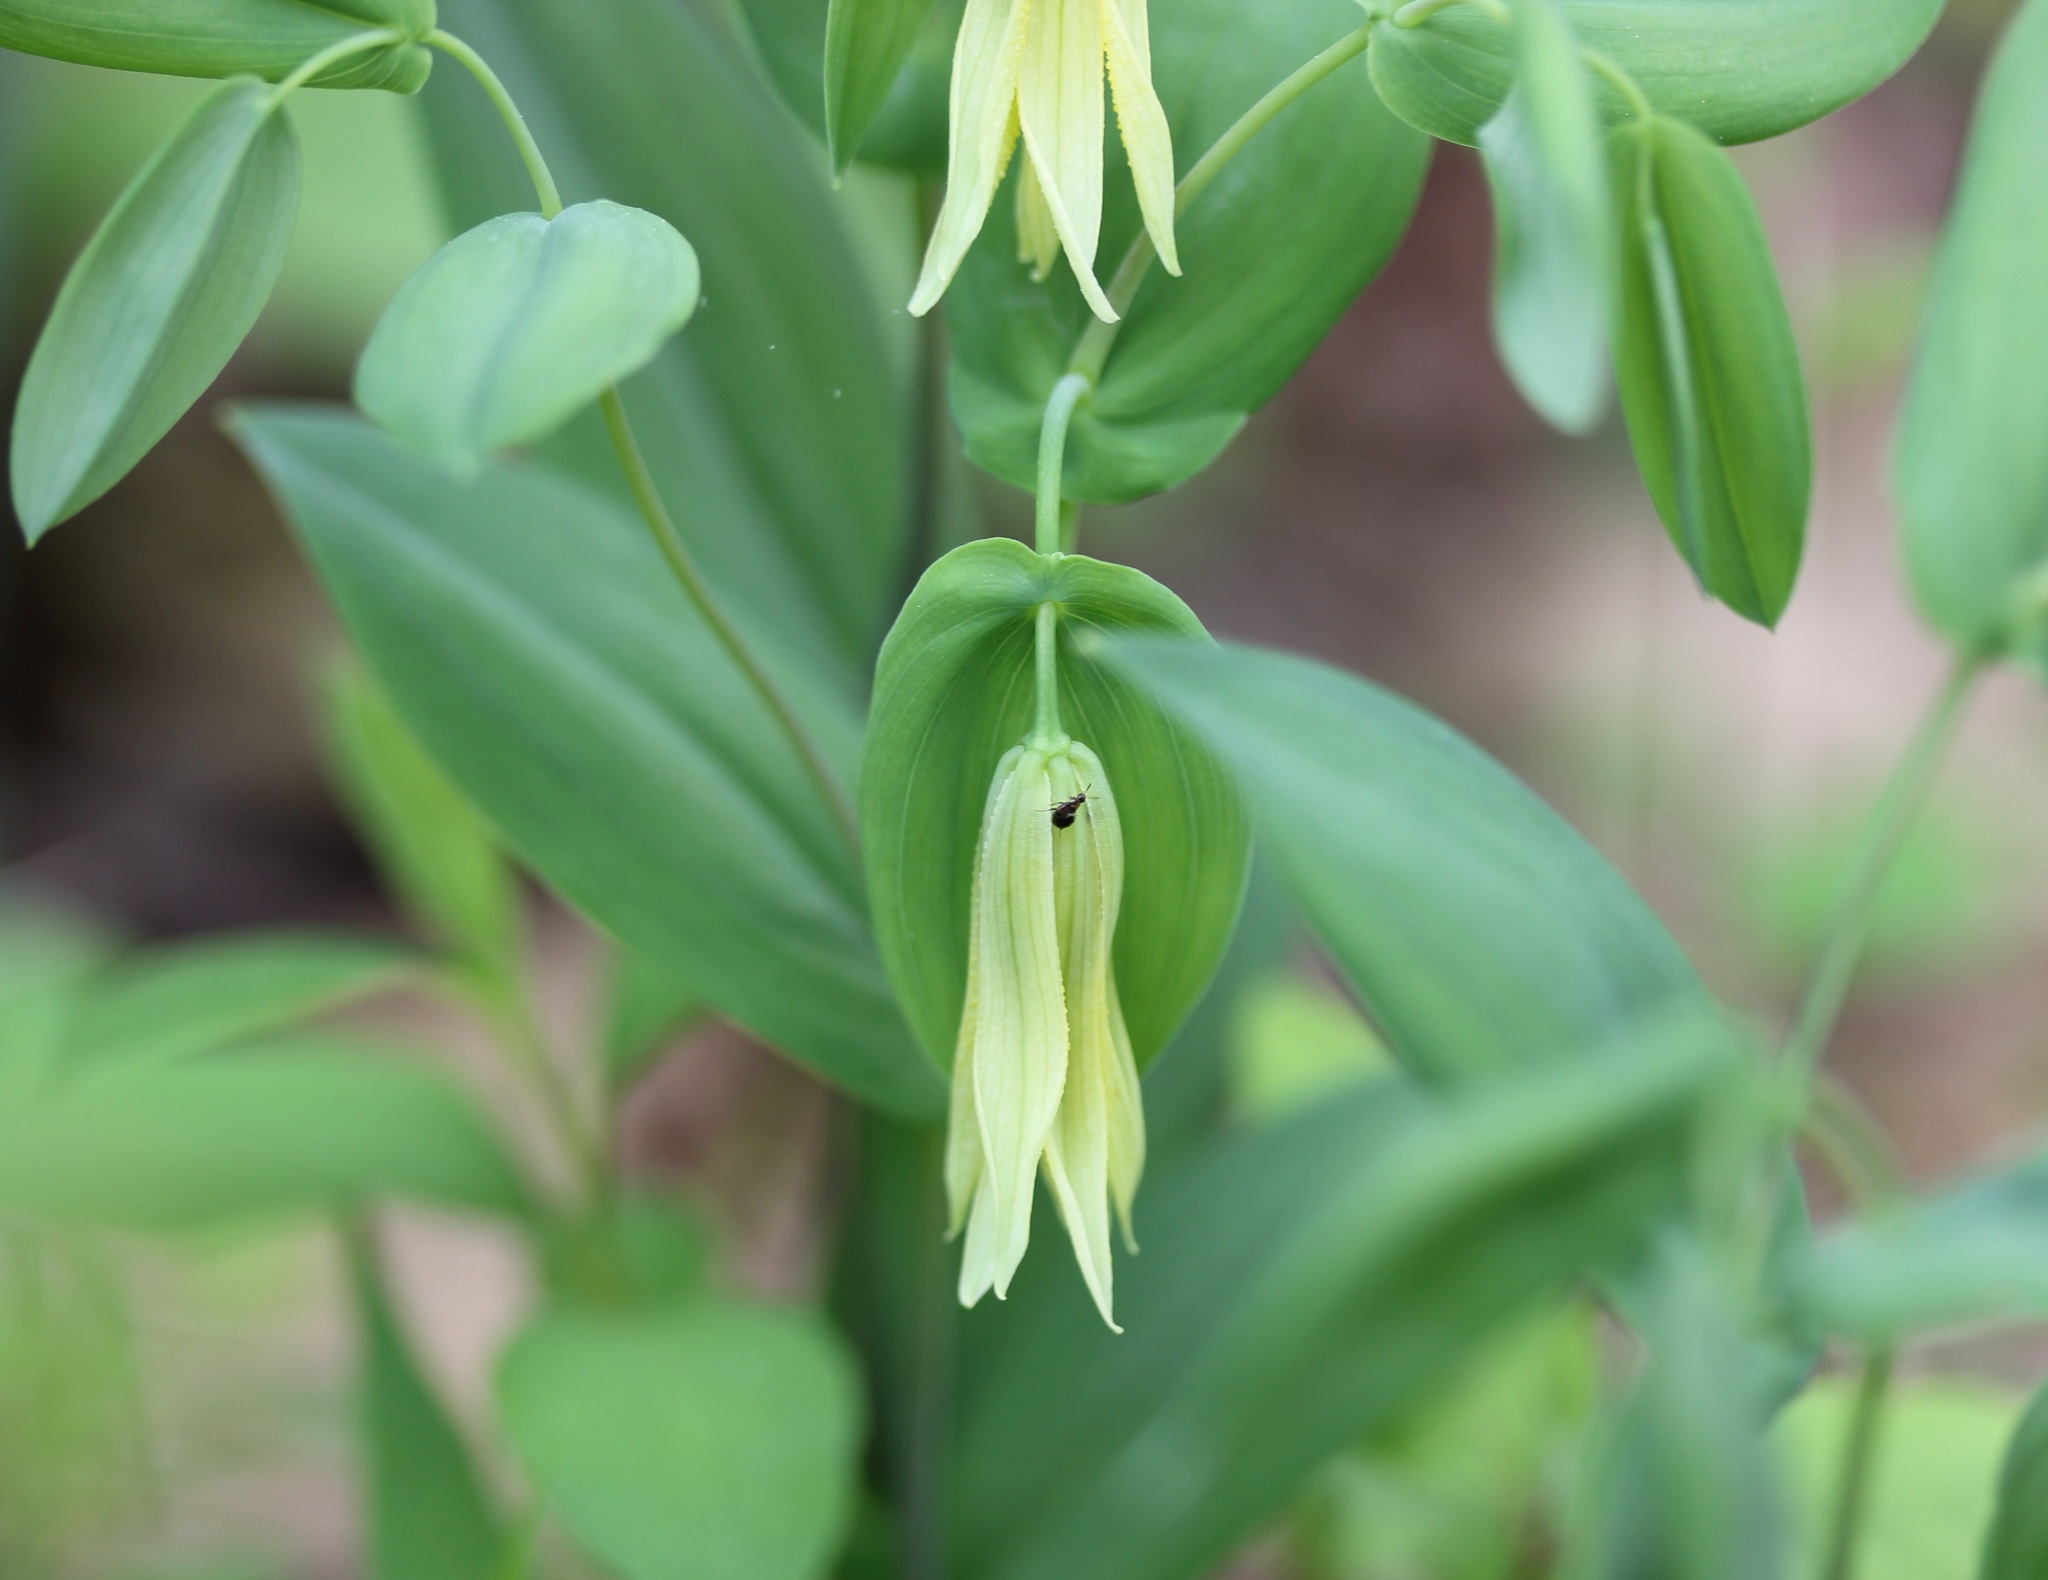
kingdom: Plantae
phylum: Tracheophyta
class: Liliopsida
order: Liliales
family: Colchicaceae
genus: Uvularia
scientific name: Uvularia perfoliata
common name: Perfoliate bellwort
